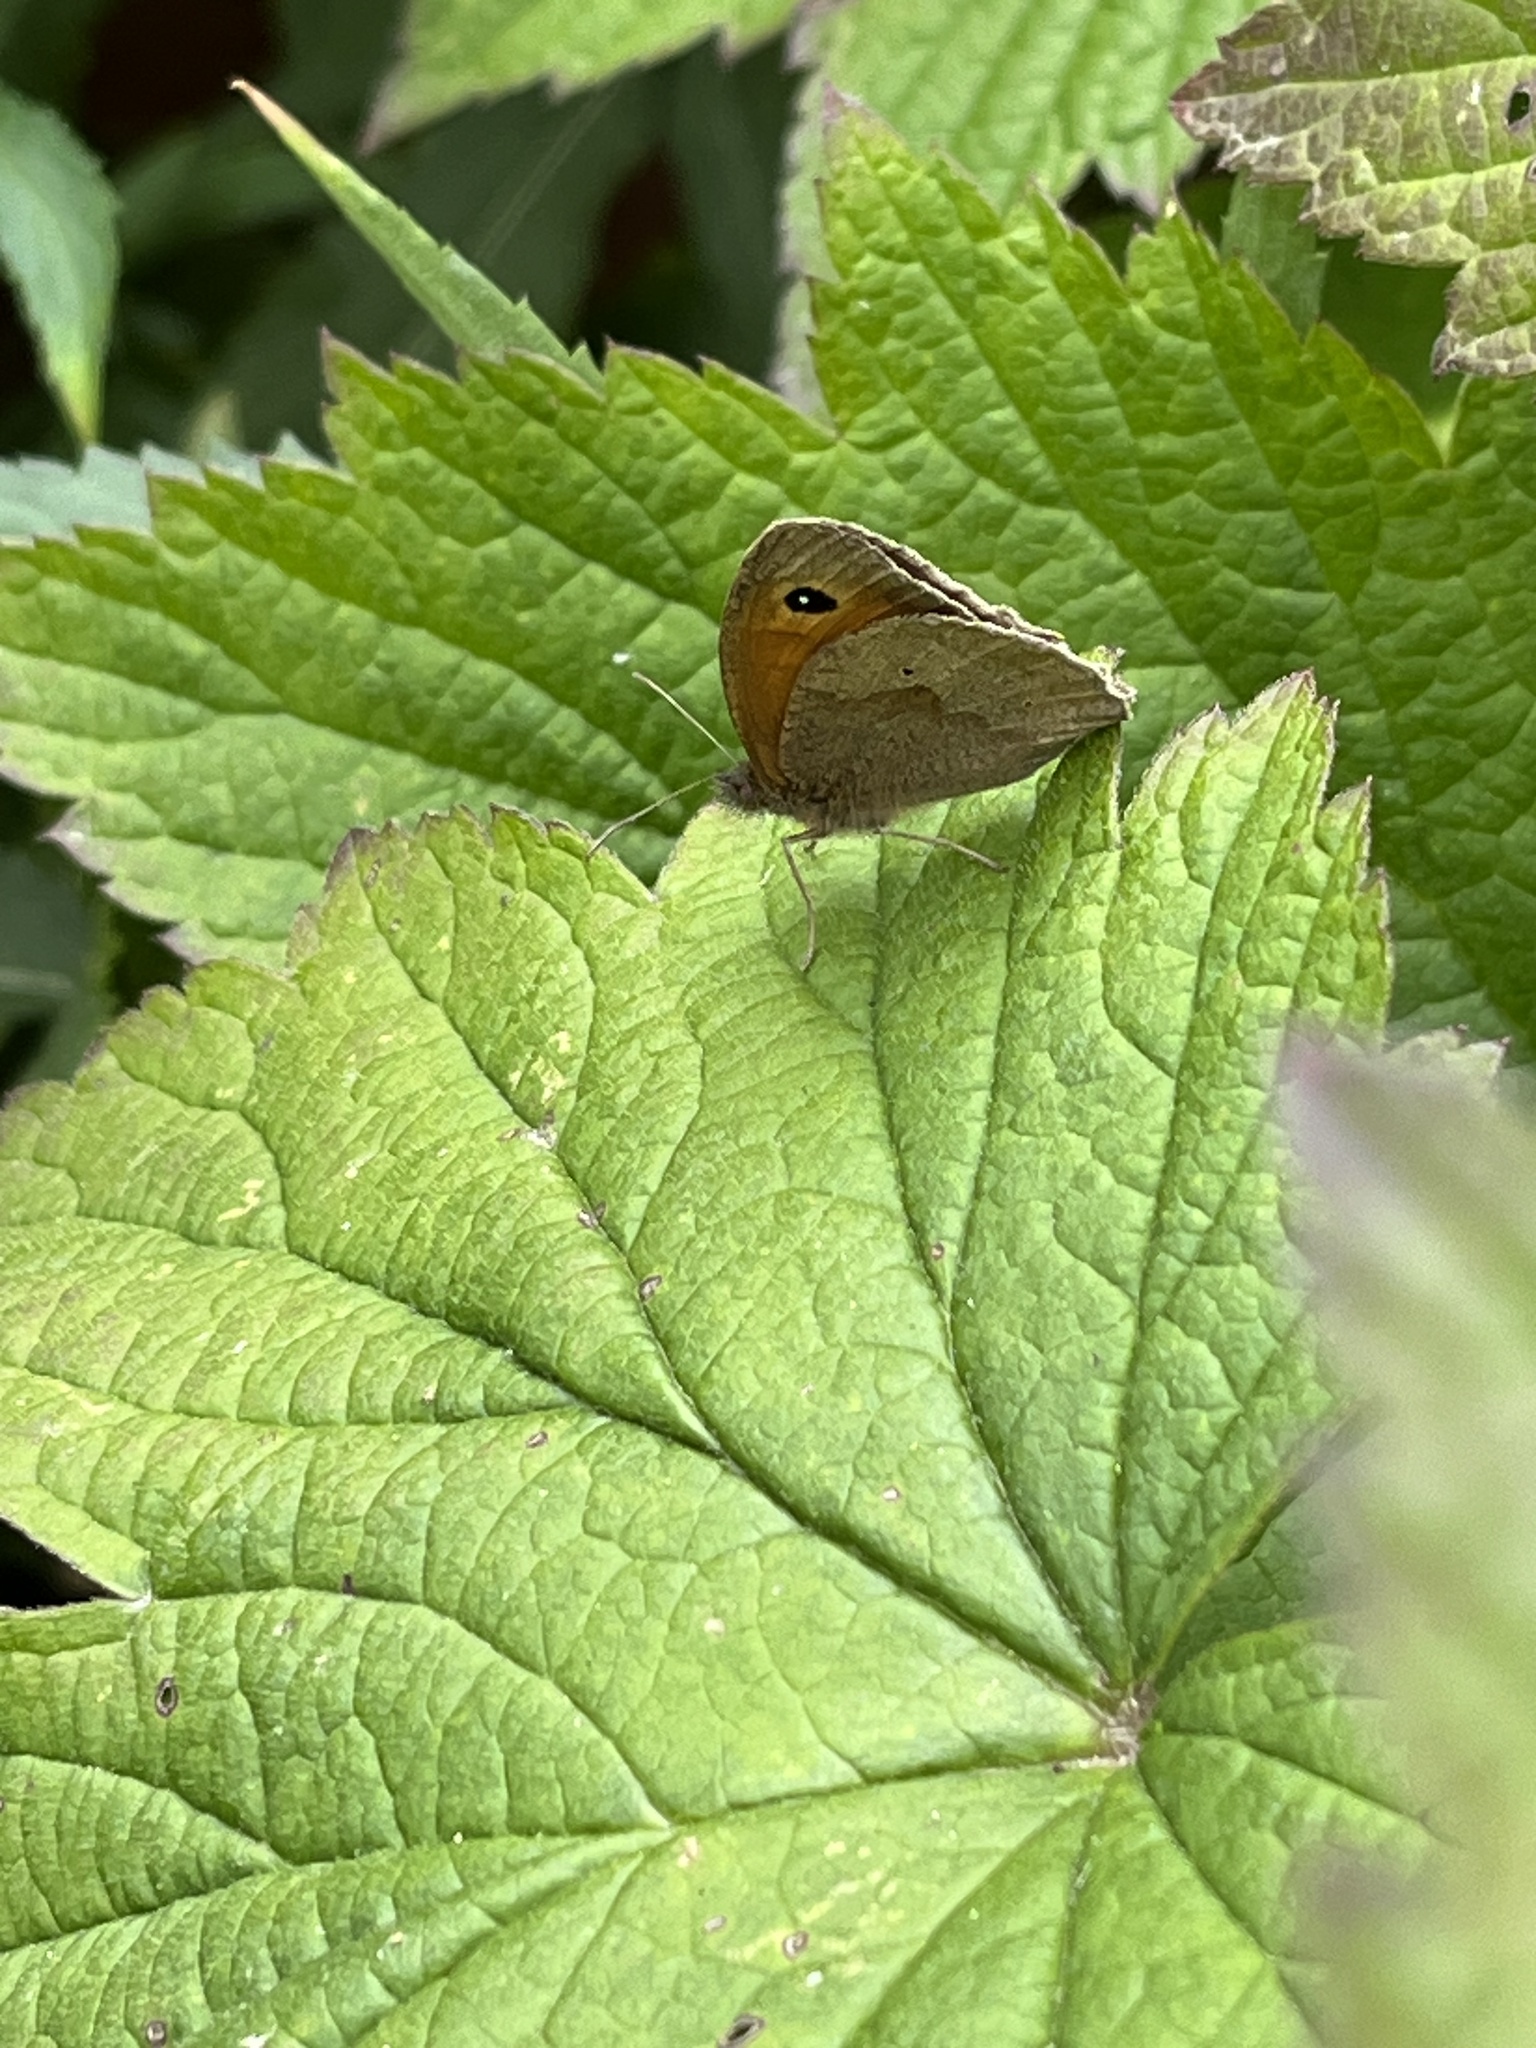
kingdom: Animalia
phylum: Arthropoda
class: Insecta
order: Lepidoptera
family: Nymphalidae
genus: Maniola
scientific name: Maniola jurtina
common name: Meadow brown
